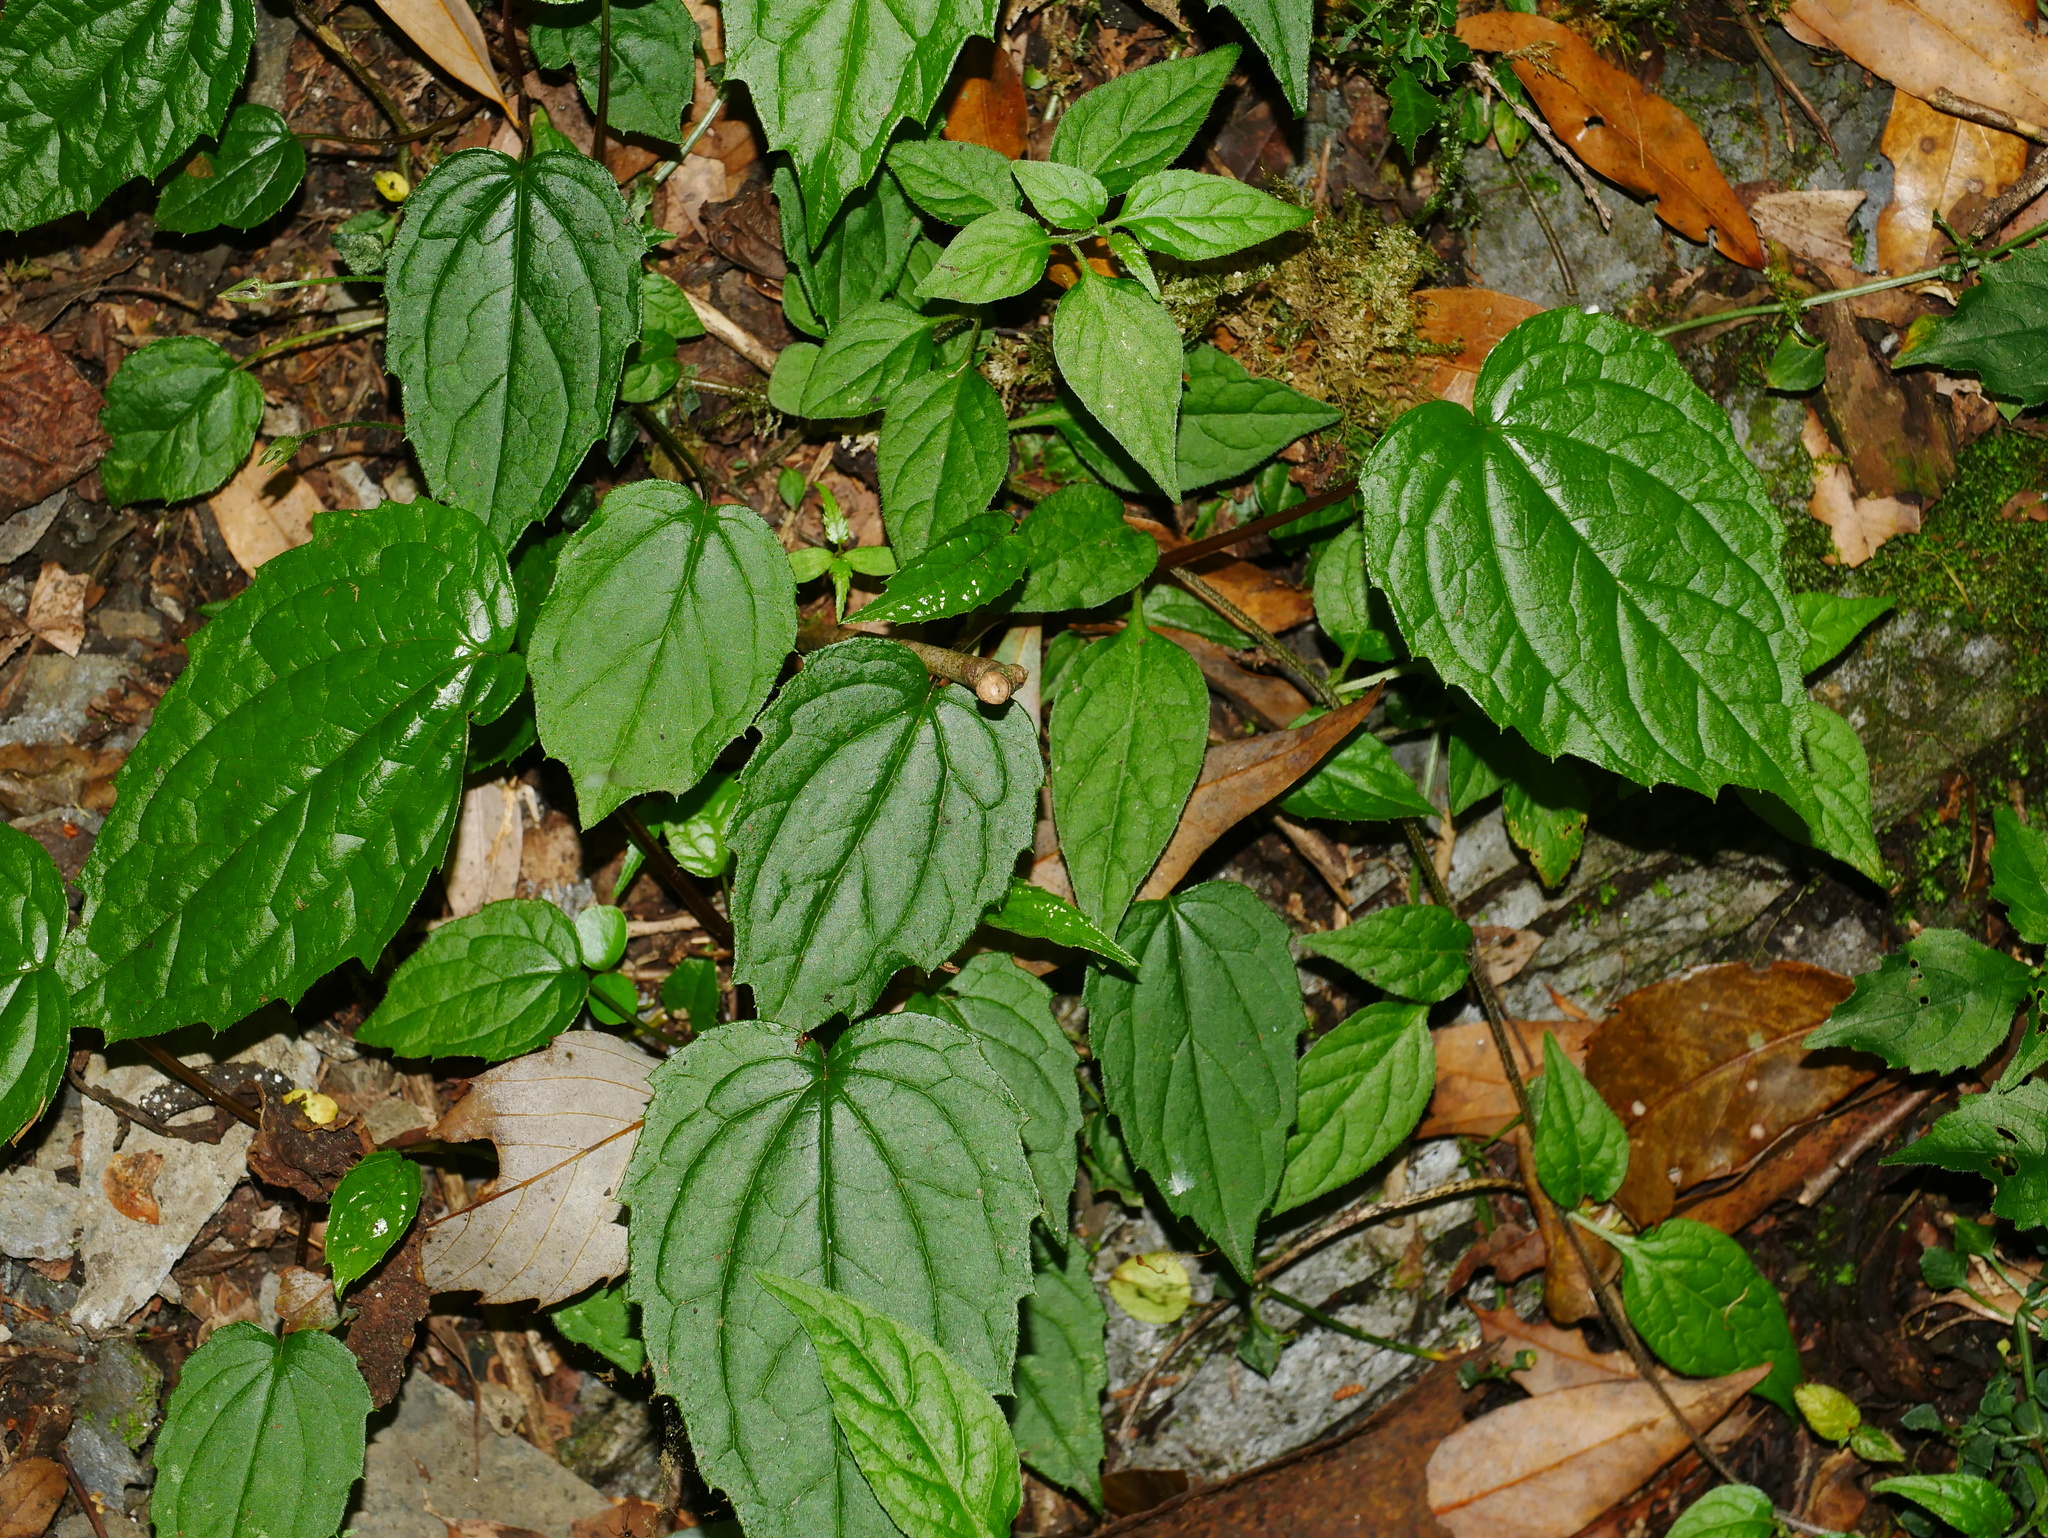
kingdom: Plantae
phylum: Tracheophyta
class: Magnoliopsida
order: Asterales
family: Asteraceae
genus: Aster
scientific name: Aster formosanus
